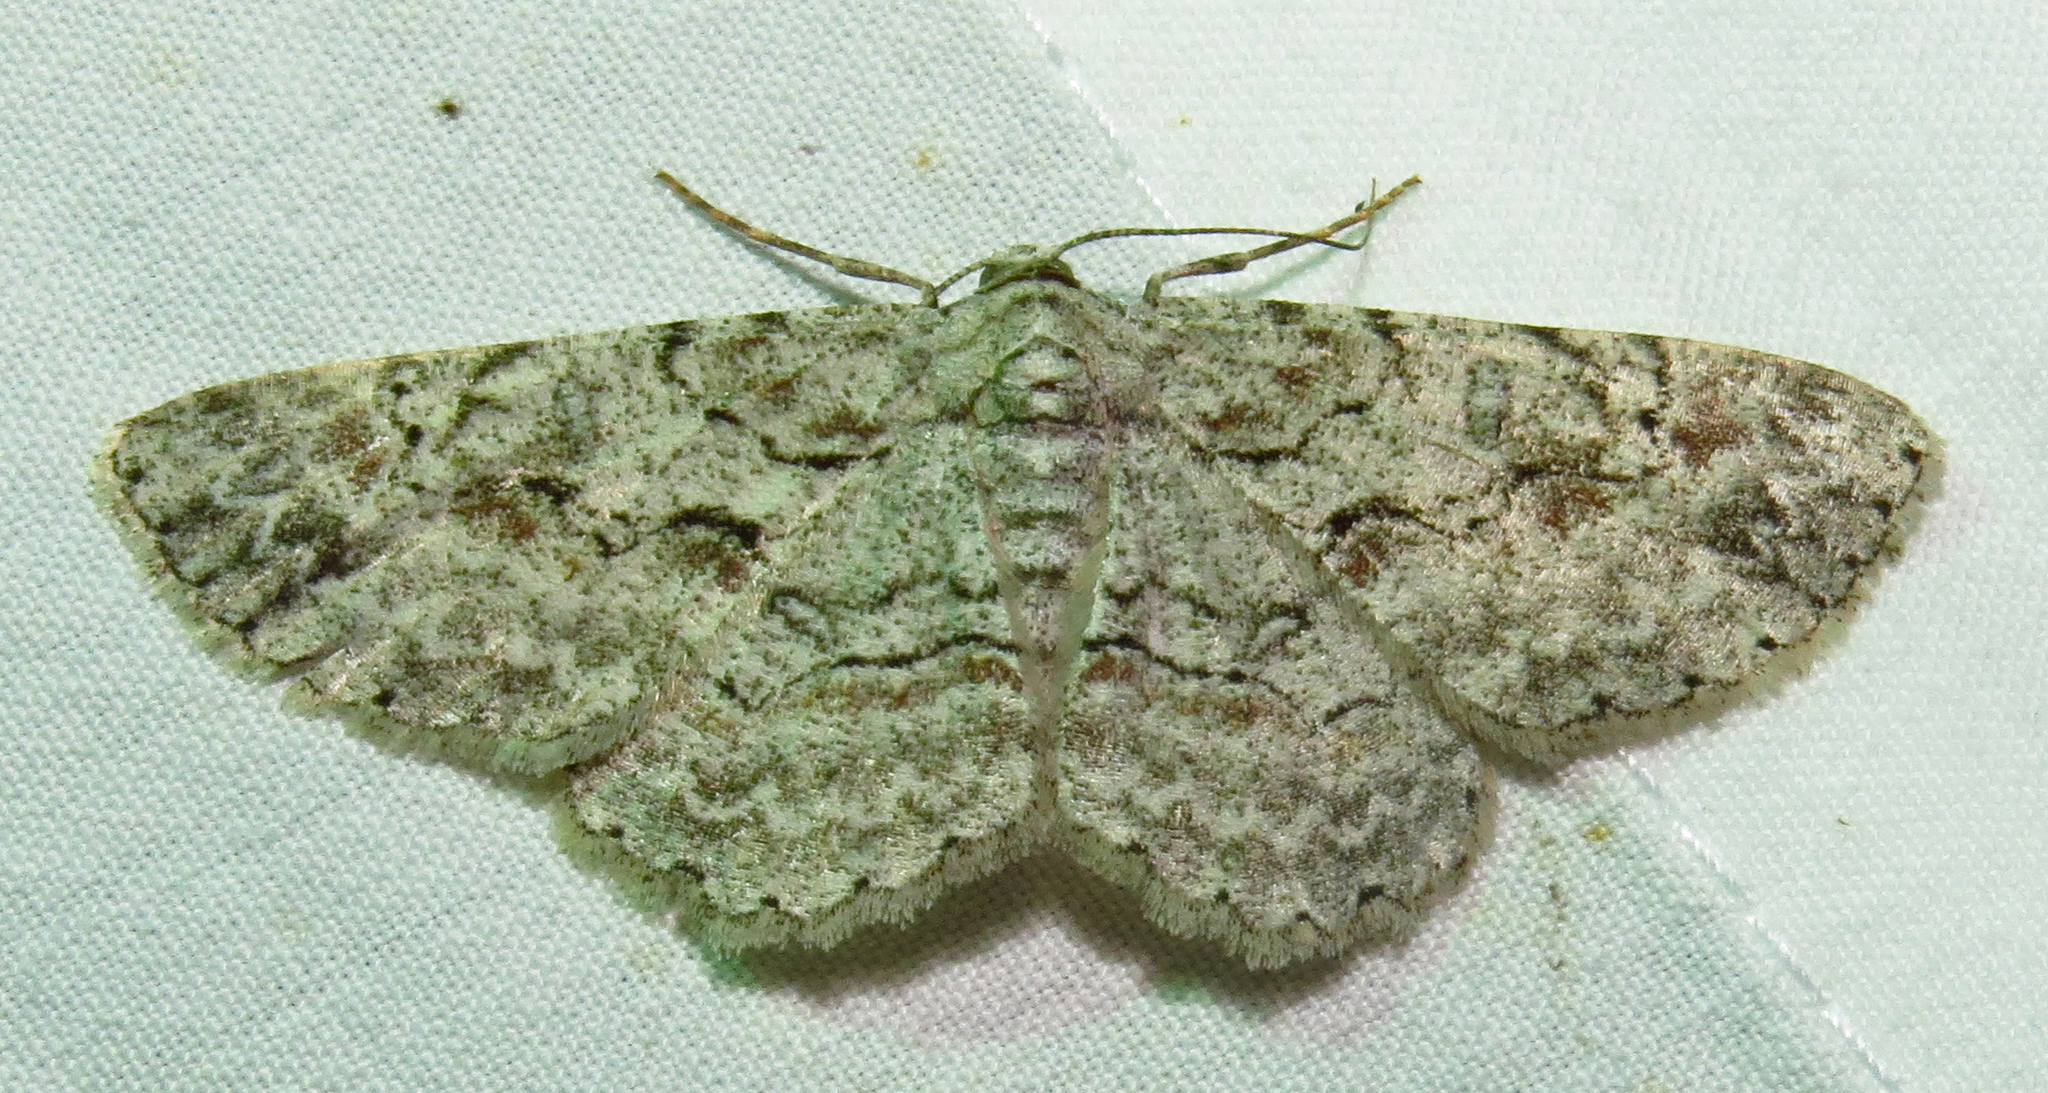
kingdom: Animalia
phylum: Arthropoda
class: Insecta
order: Lepidoptera
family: Geometridae
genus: Iridopsis
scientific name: Iridopsis defectaria
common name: Brown-shaded gray
